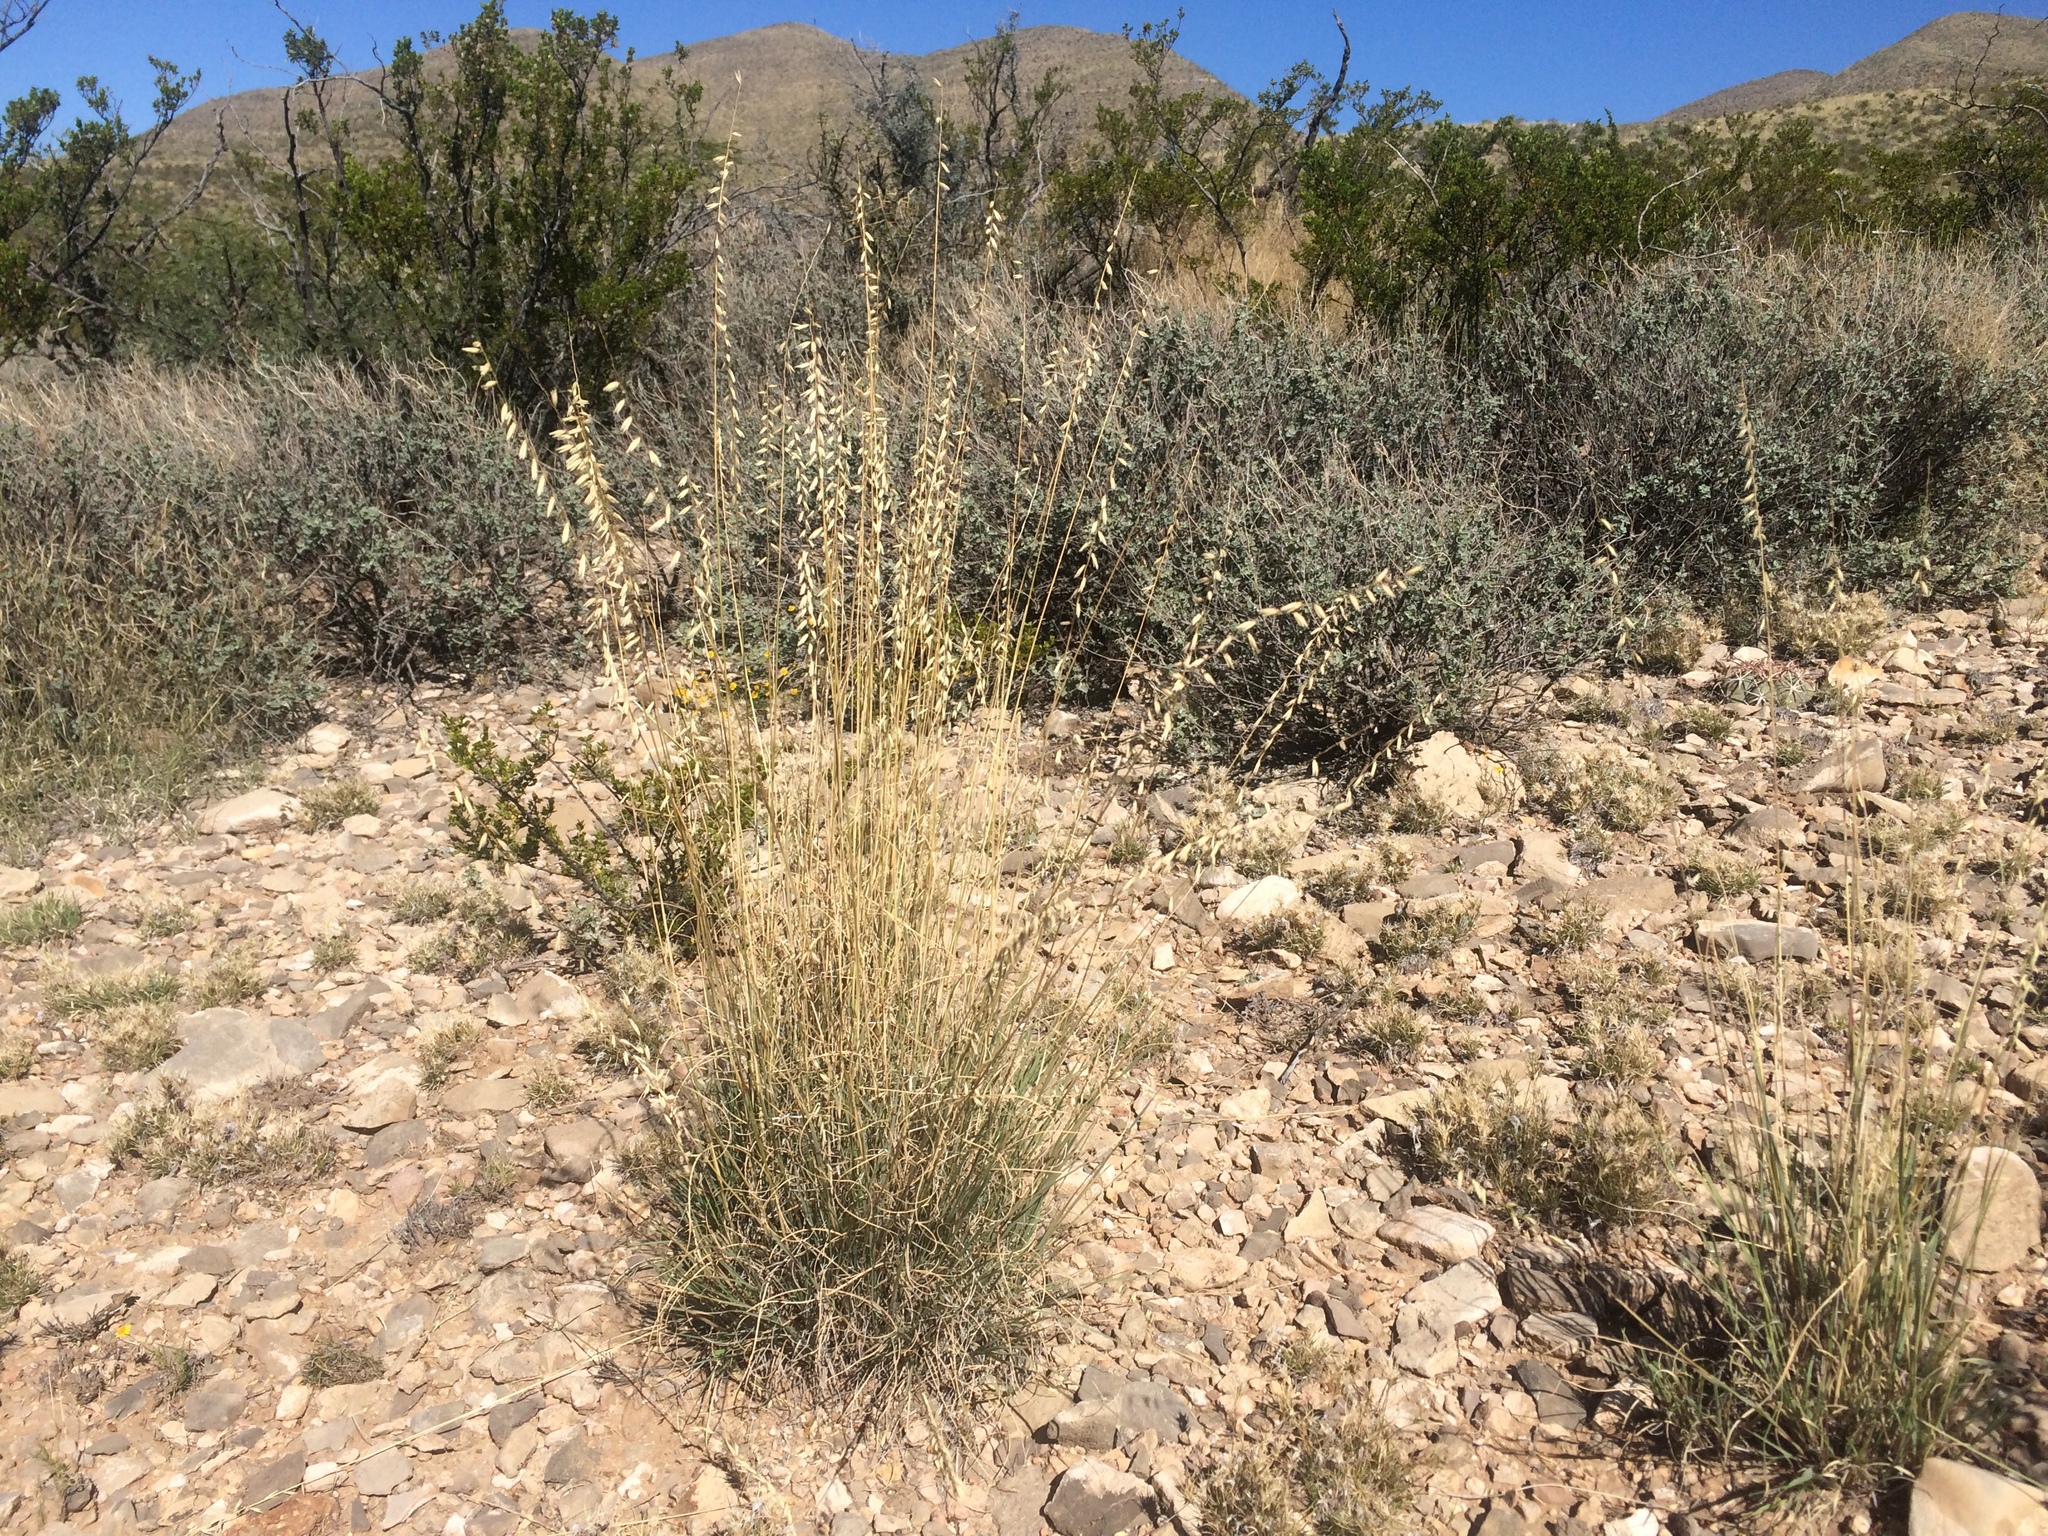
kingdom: Plantae
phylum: Tracheophyta
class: Liliopsida
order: Poales
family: Poaceae
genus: Bouteloua
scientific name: Bouteloua warnockii
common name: Warnock's grama
